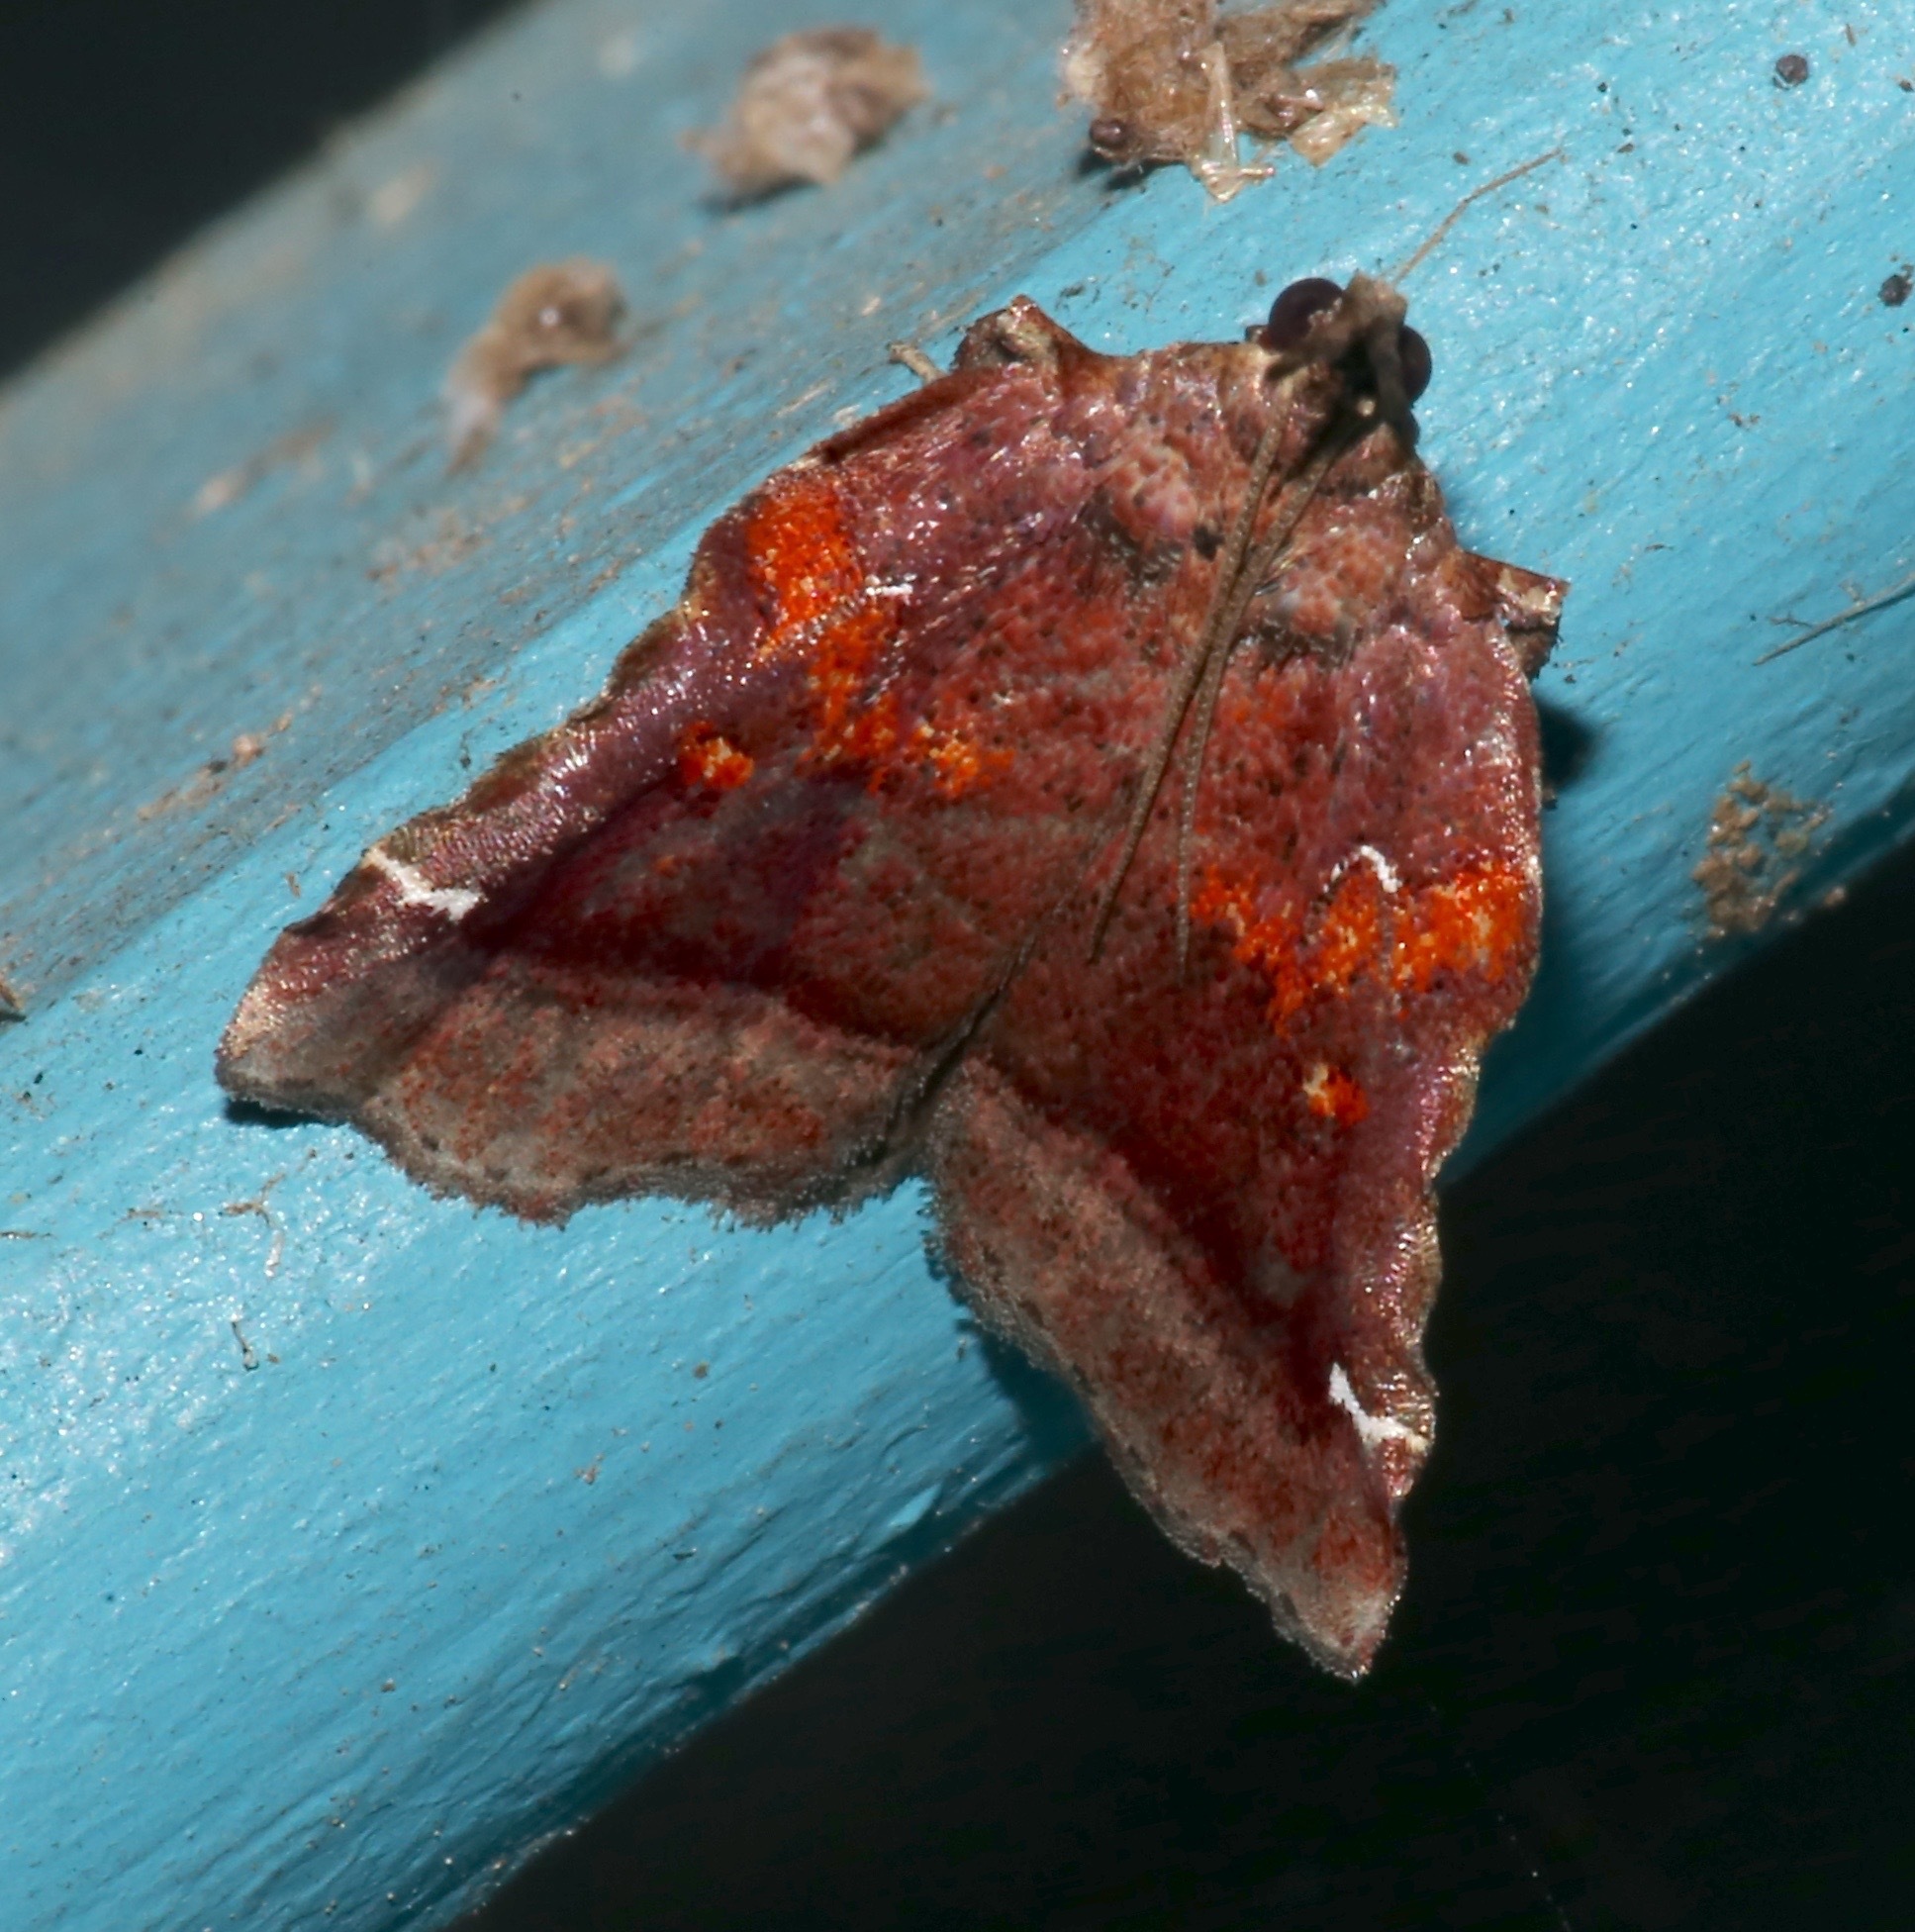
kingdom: Animalia
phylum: Arthropoda
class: Insecta
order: Lepidoptera
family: Pyralidae
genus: Clydonopteron
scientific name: Clydonopteron sacculana
